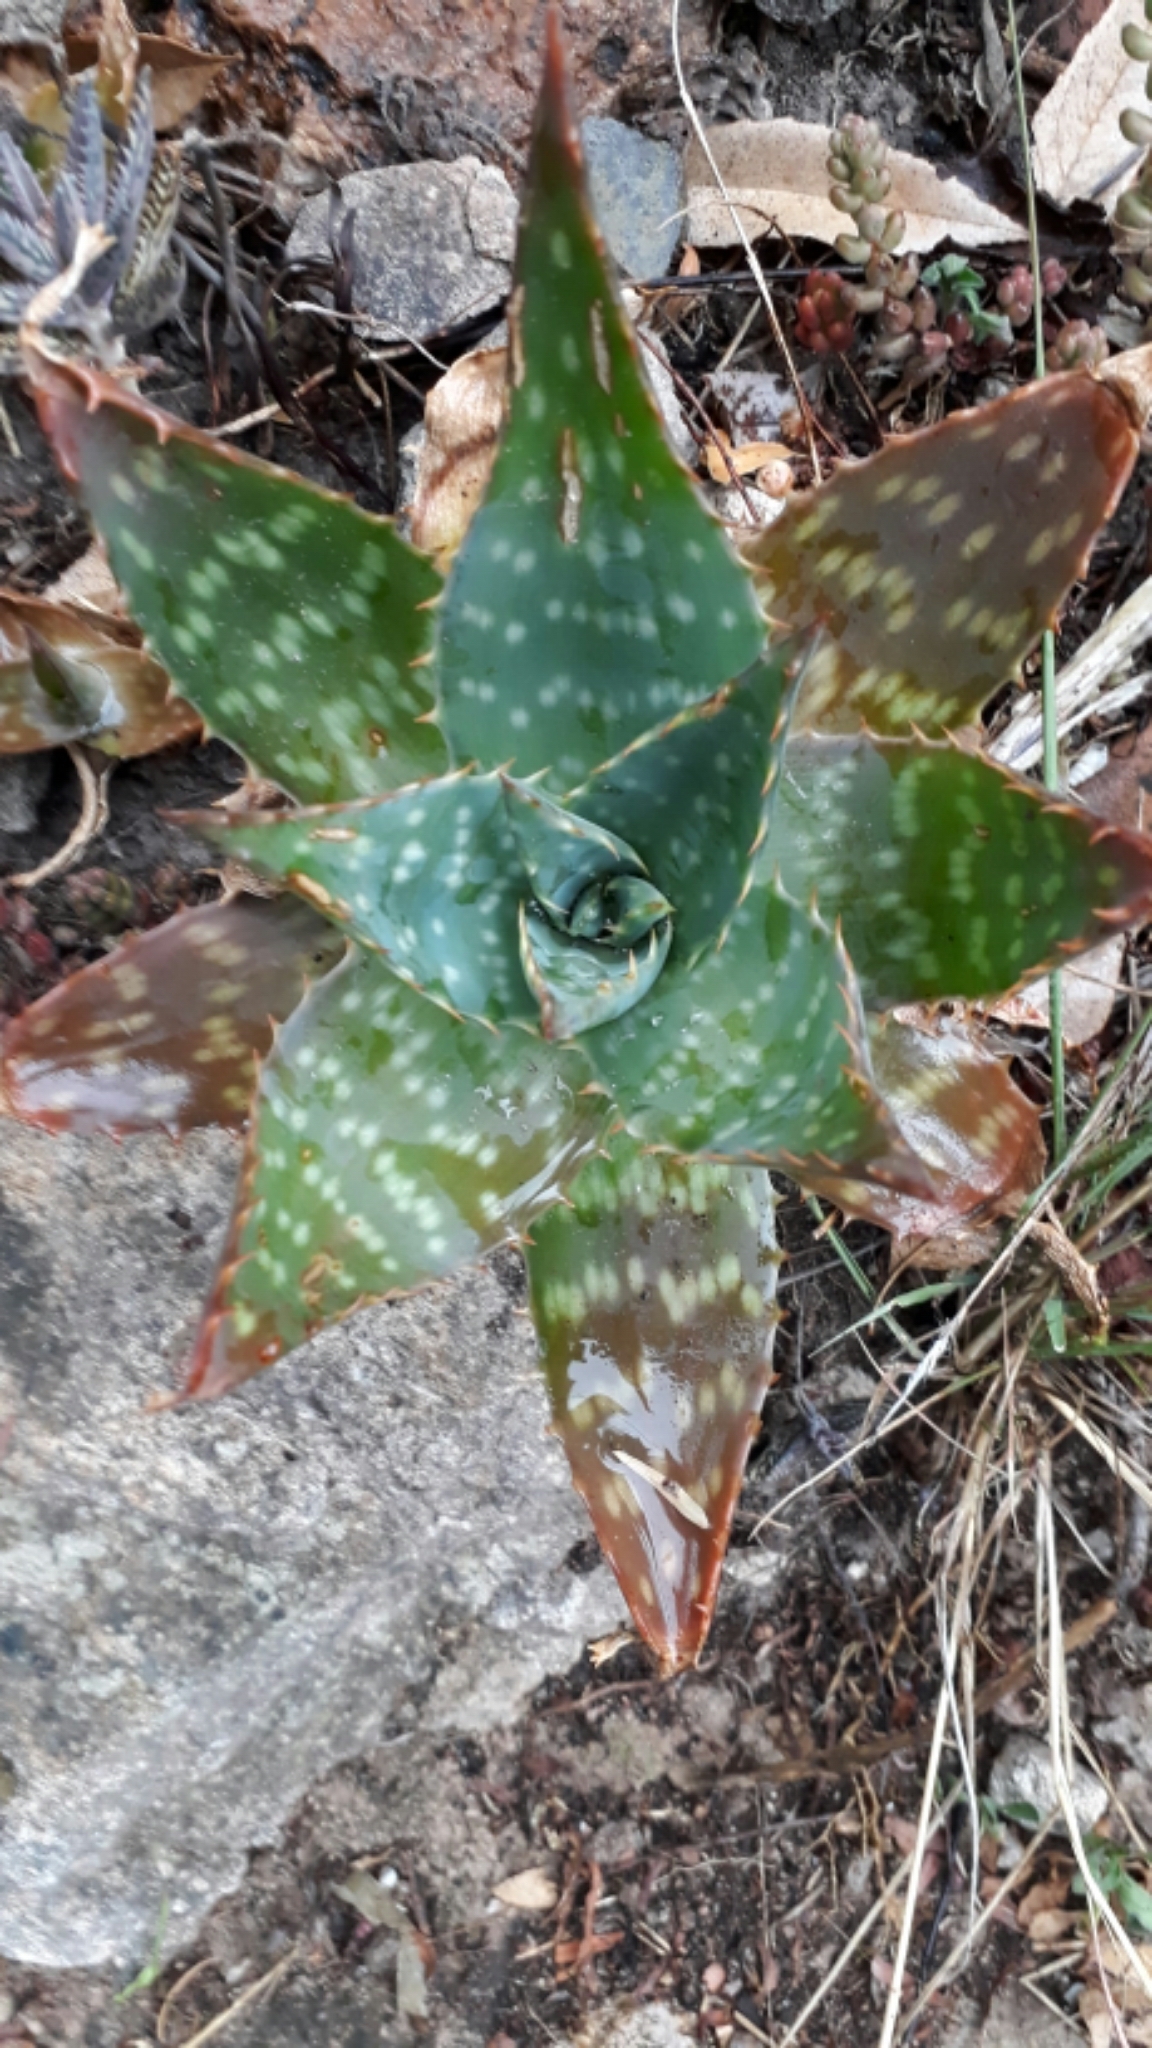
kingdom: Plantae
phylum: Tracheophyta
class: Liliopsida
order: Asparagales
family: Asphodelaceae
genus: Aloe
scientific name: Aloe maculata
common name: Broadleaf aloe
